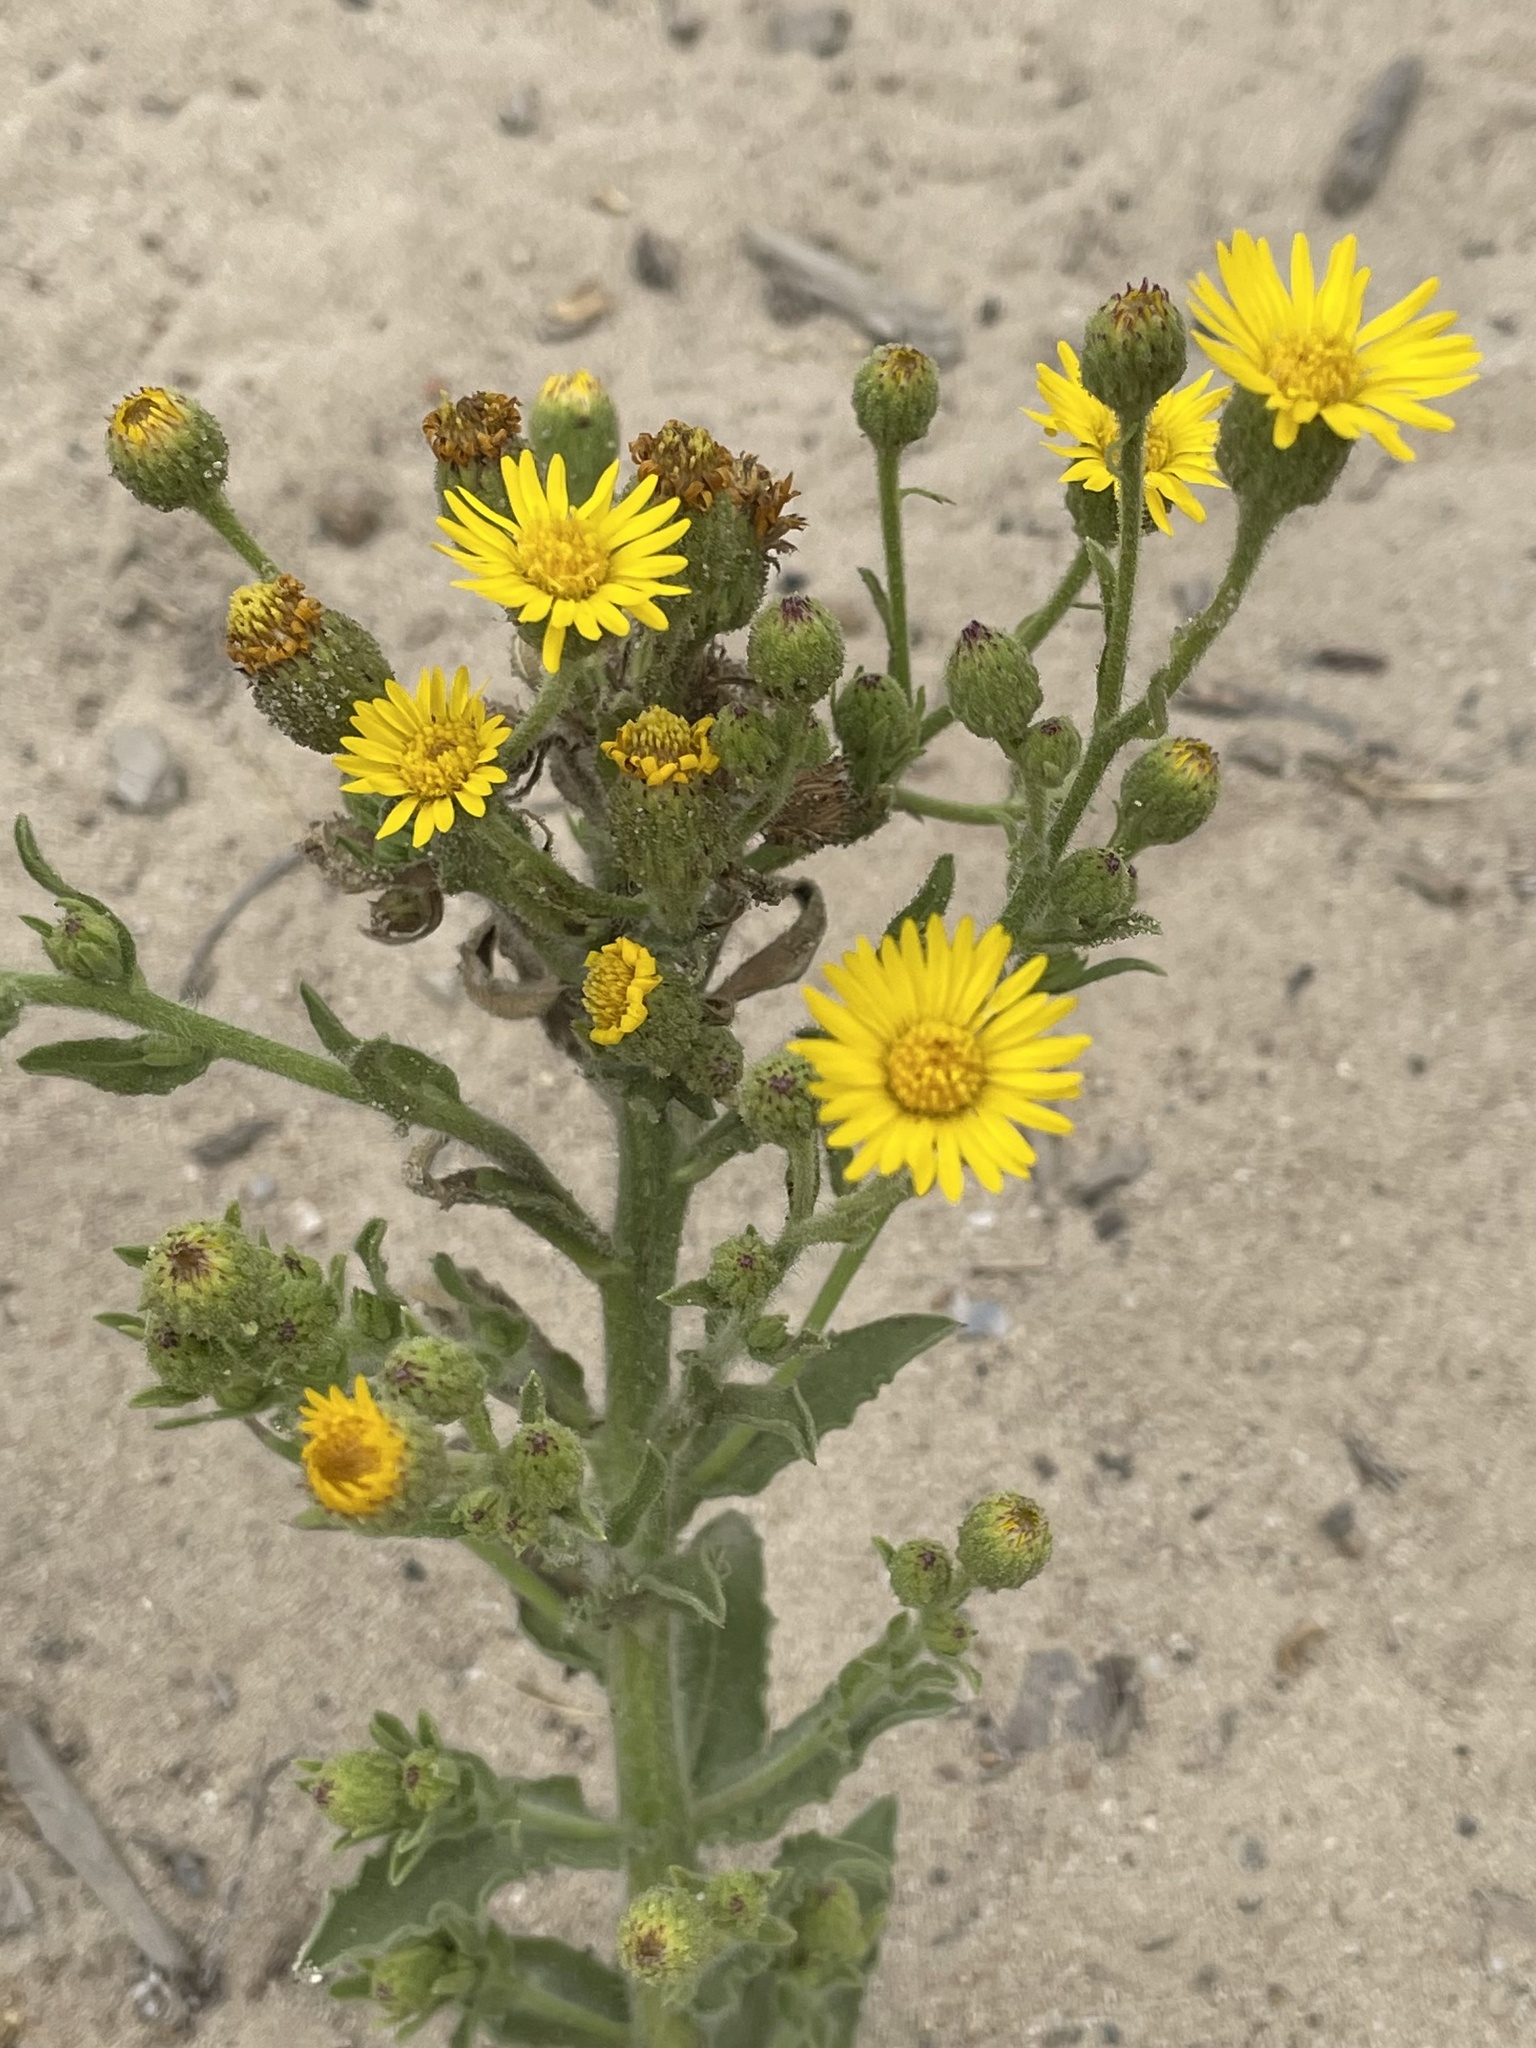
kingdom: Plantae
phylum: Tracheophyta
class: Magnoliopsida
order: Asterales
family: Asteraceae
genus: Heterotheca
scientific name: Heterotheca grandiflora
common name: Telegraphweed
